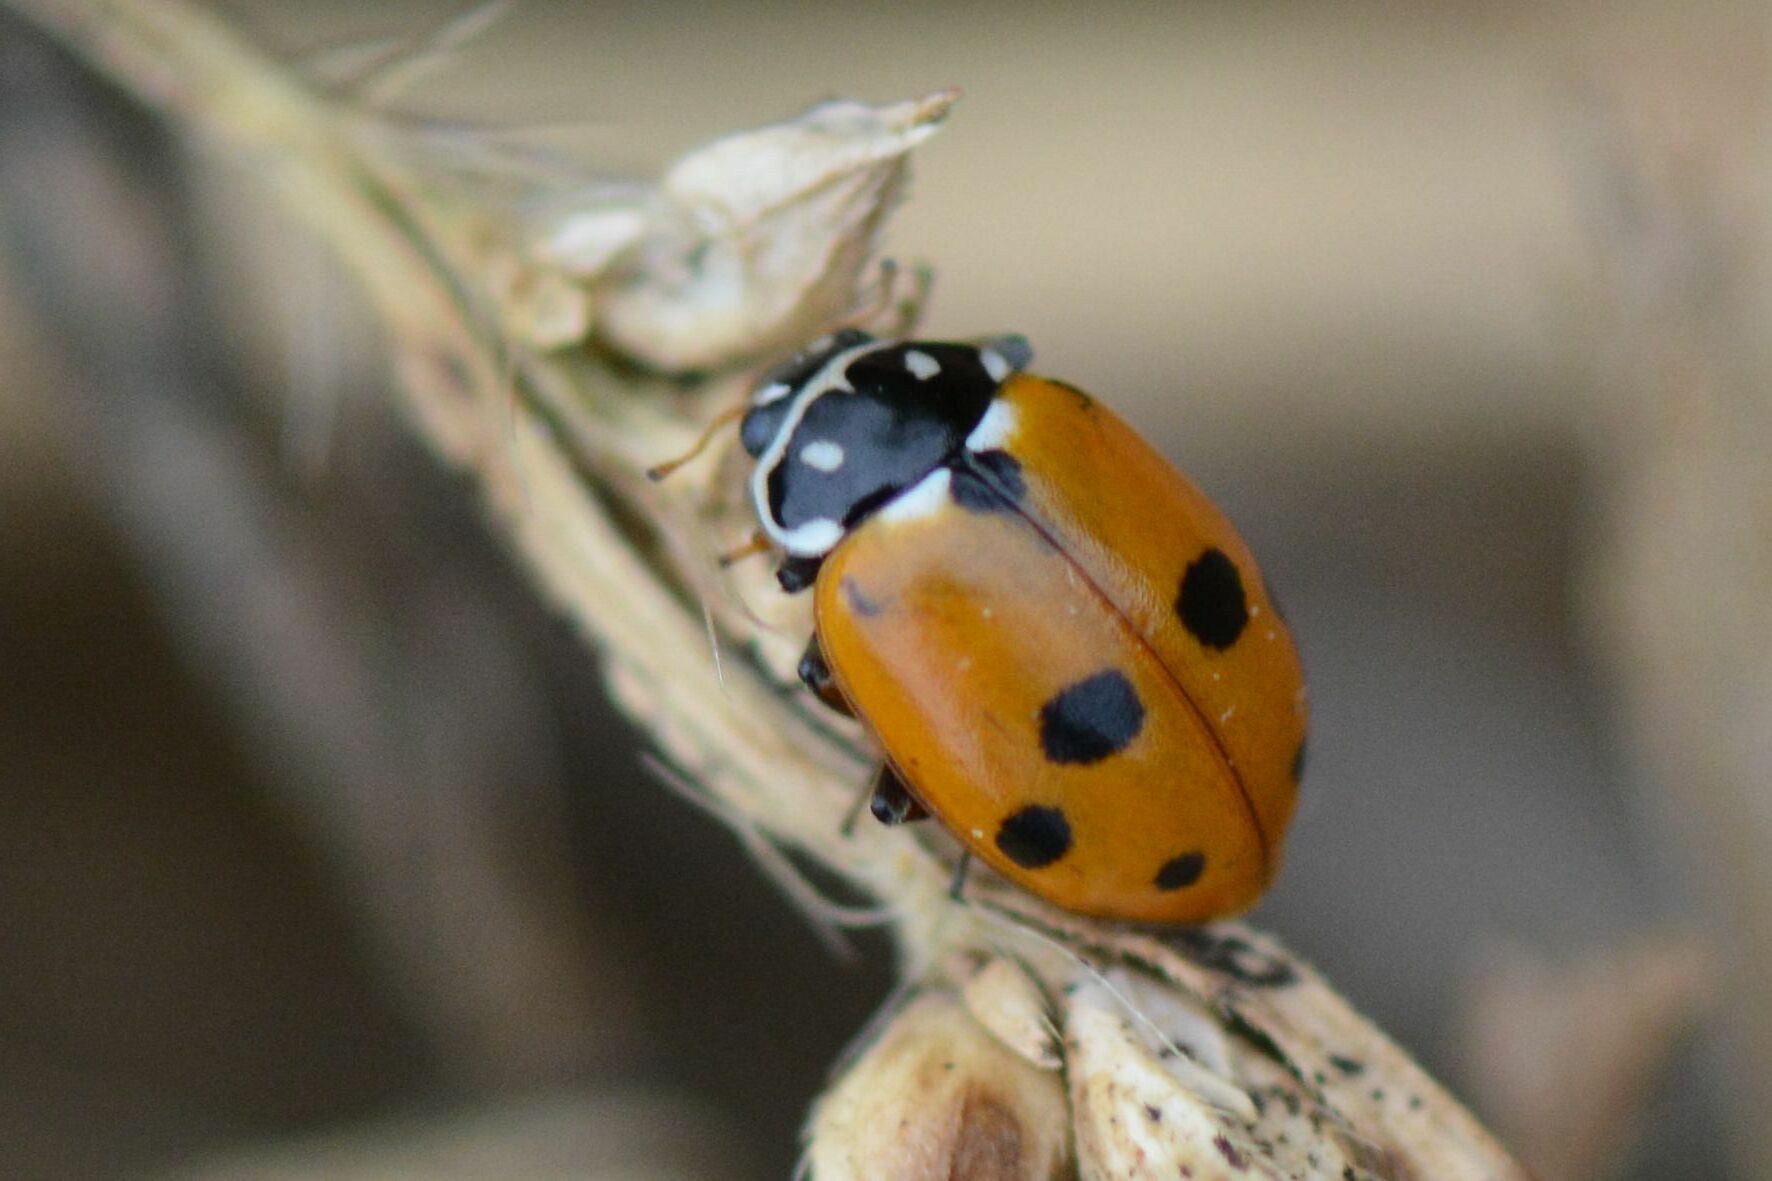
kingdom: Animalia
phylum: Arthropoda
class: Insecta
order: Coleoptera
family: Coccinellidae
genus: Hippodamia
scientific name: Hippodamia variegata
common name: Ladybird beetle
